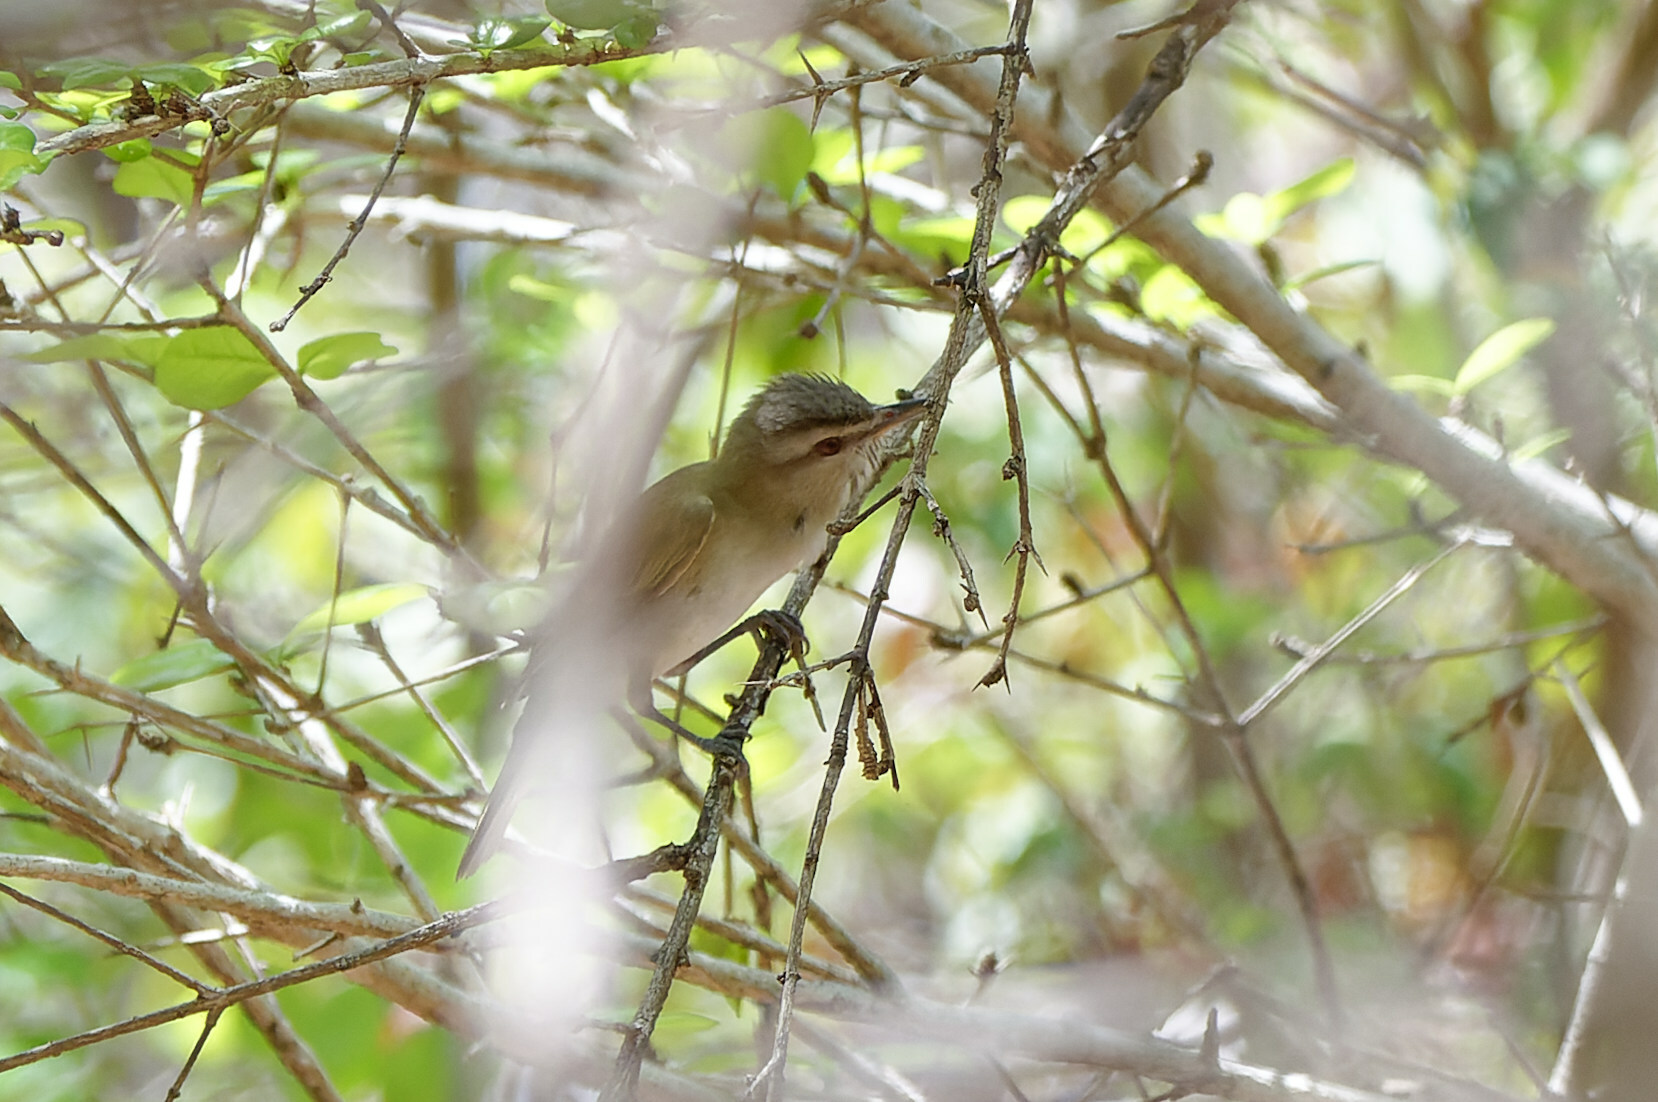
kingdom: Animalia
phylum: Chordata
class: Aves
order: Passeriformes
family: Vireonidae
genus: Vireo
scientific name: Vireo altiloquus
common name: Black-whiskered vireo
